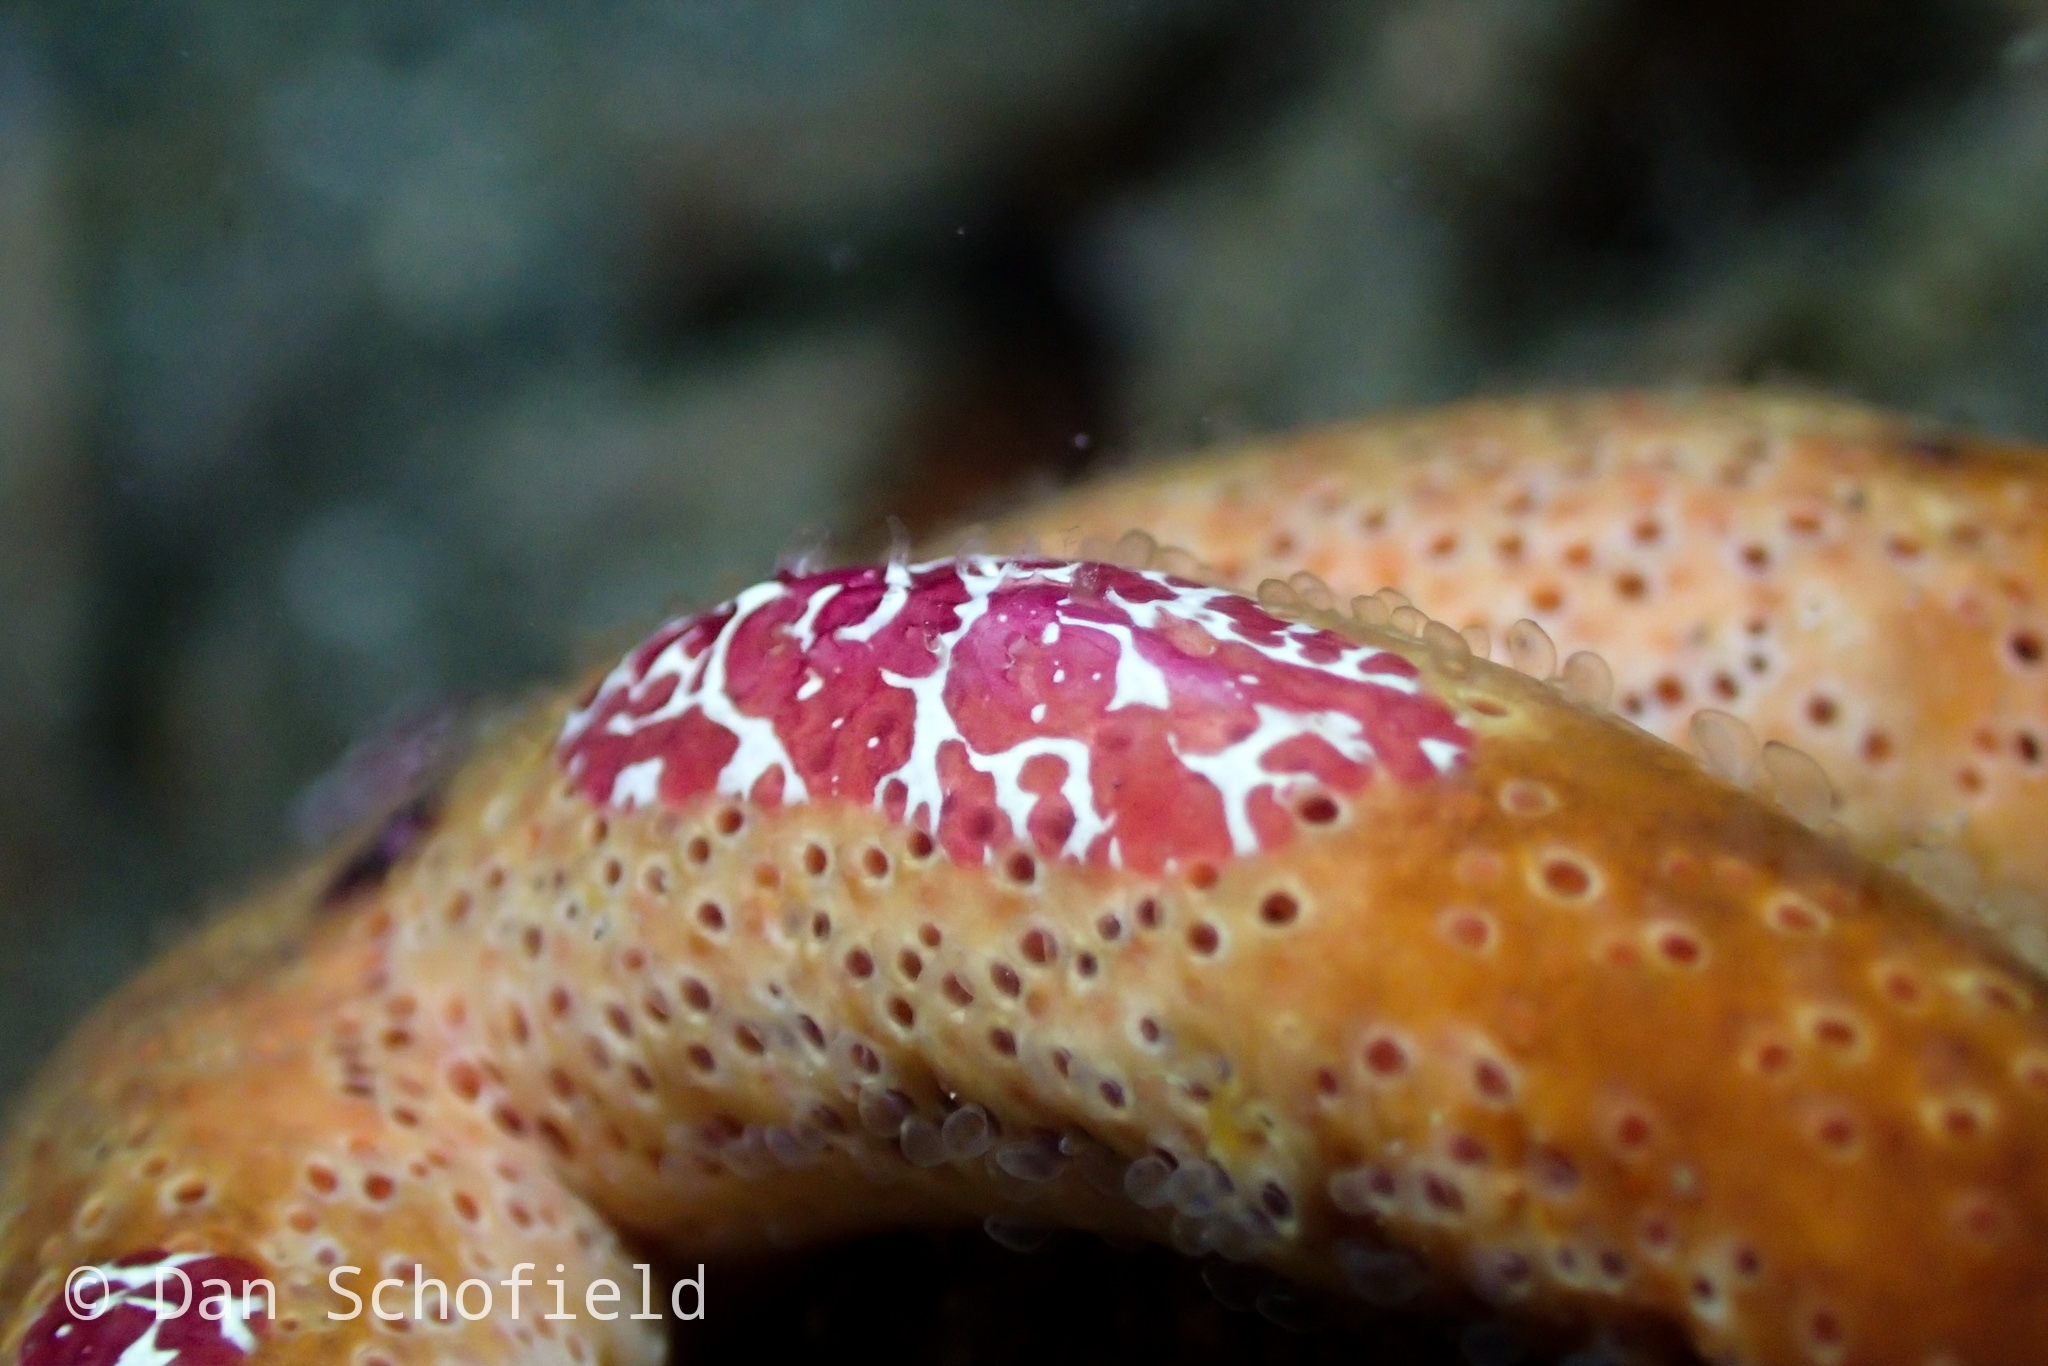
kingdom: Animalia
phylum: Ctenophora
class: Tentaculata
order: Platyctenida
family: Coeloplanidae
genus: Coeloplana
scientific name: Coeloplana astericola
